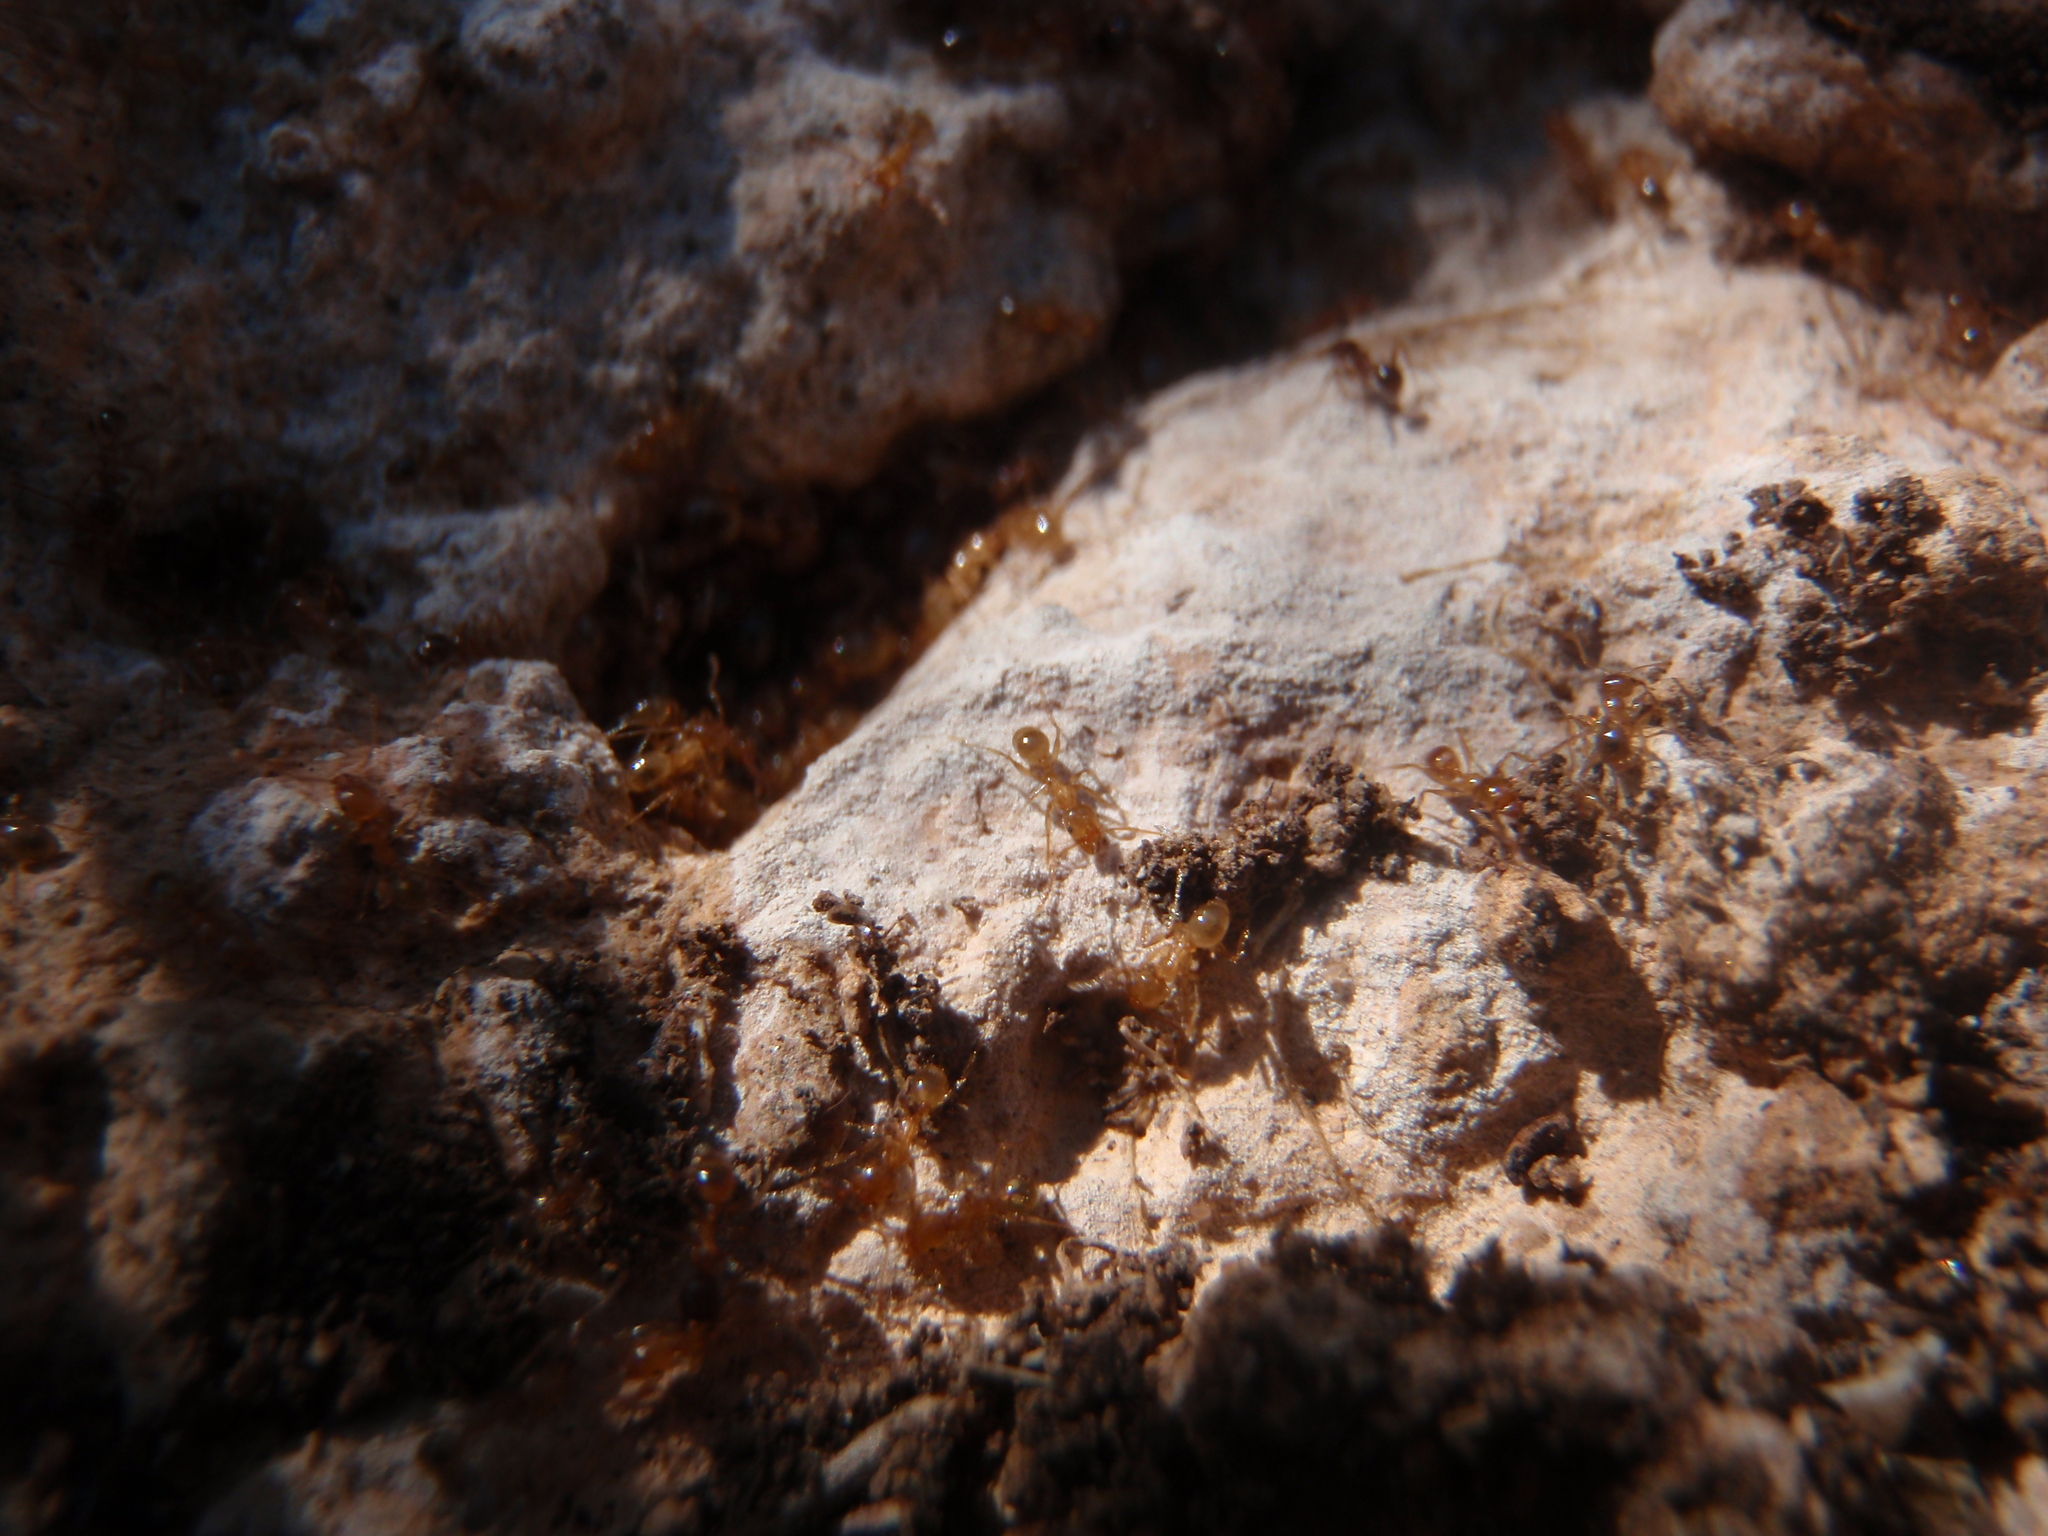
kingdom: Animalia
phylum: Arthropoda
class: Insecta
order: Hymenoptera
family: Formicidae
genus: Pheidole
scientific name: Pheidole pallidula
